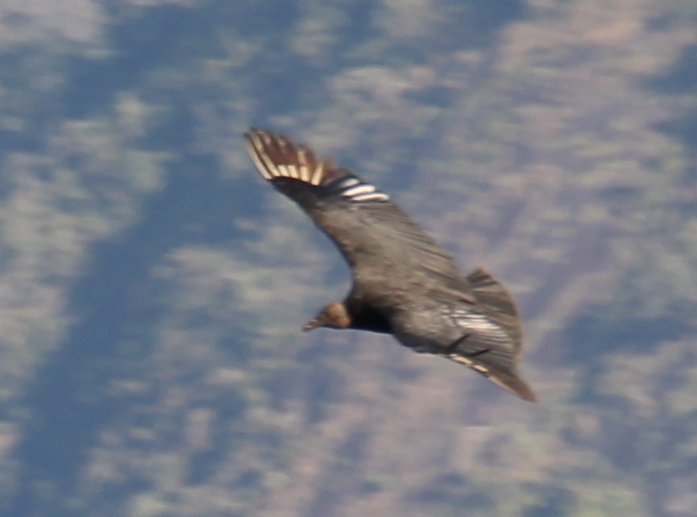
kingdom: Animalia
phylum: Chordata
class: Aves
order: Accipitriformes
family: Cathartidae
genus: Coragyps
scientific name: Coragyps atratus
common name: Black vulture
